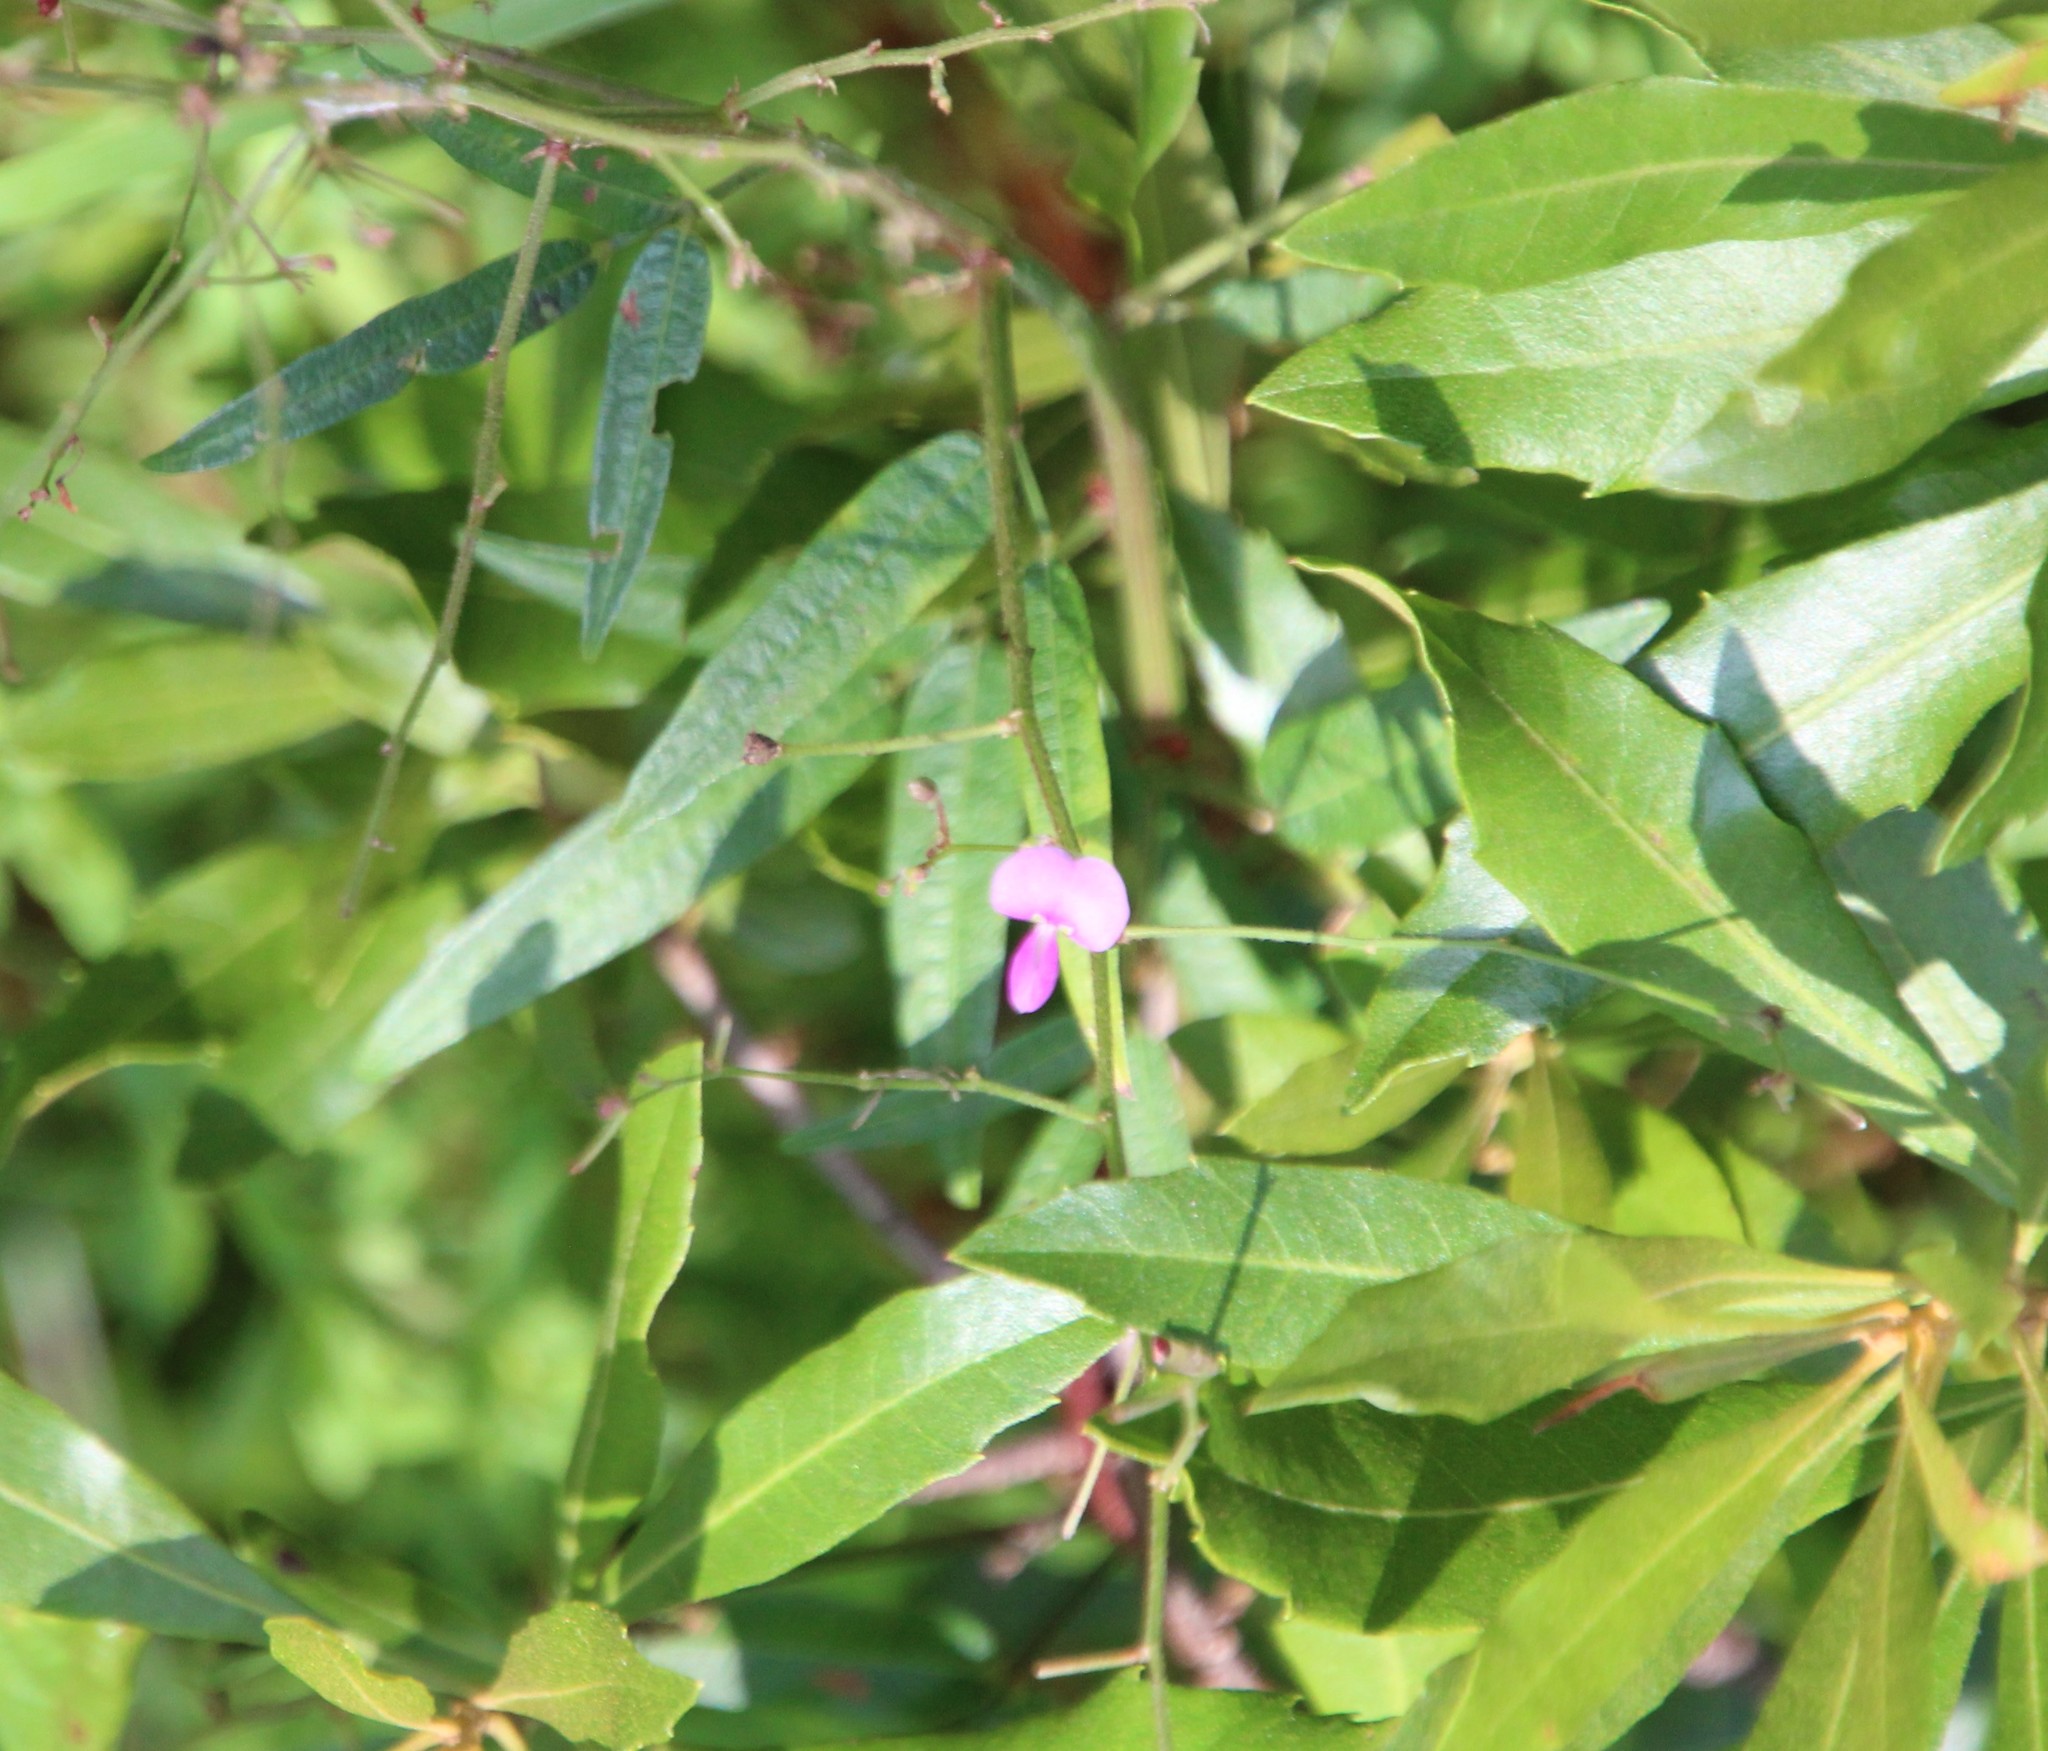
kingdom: Plantae
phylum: Tracheophyta
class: Magnoliopsida
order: Fabales
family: Fabaceae
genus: Desmodium
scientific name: Desmodium paniculatum
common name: Panicled tick-clover
